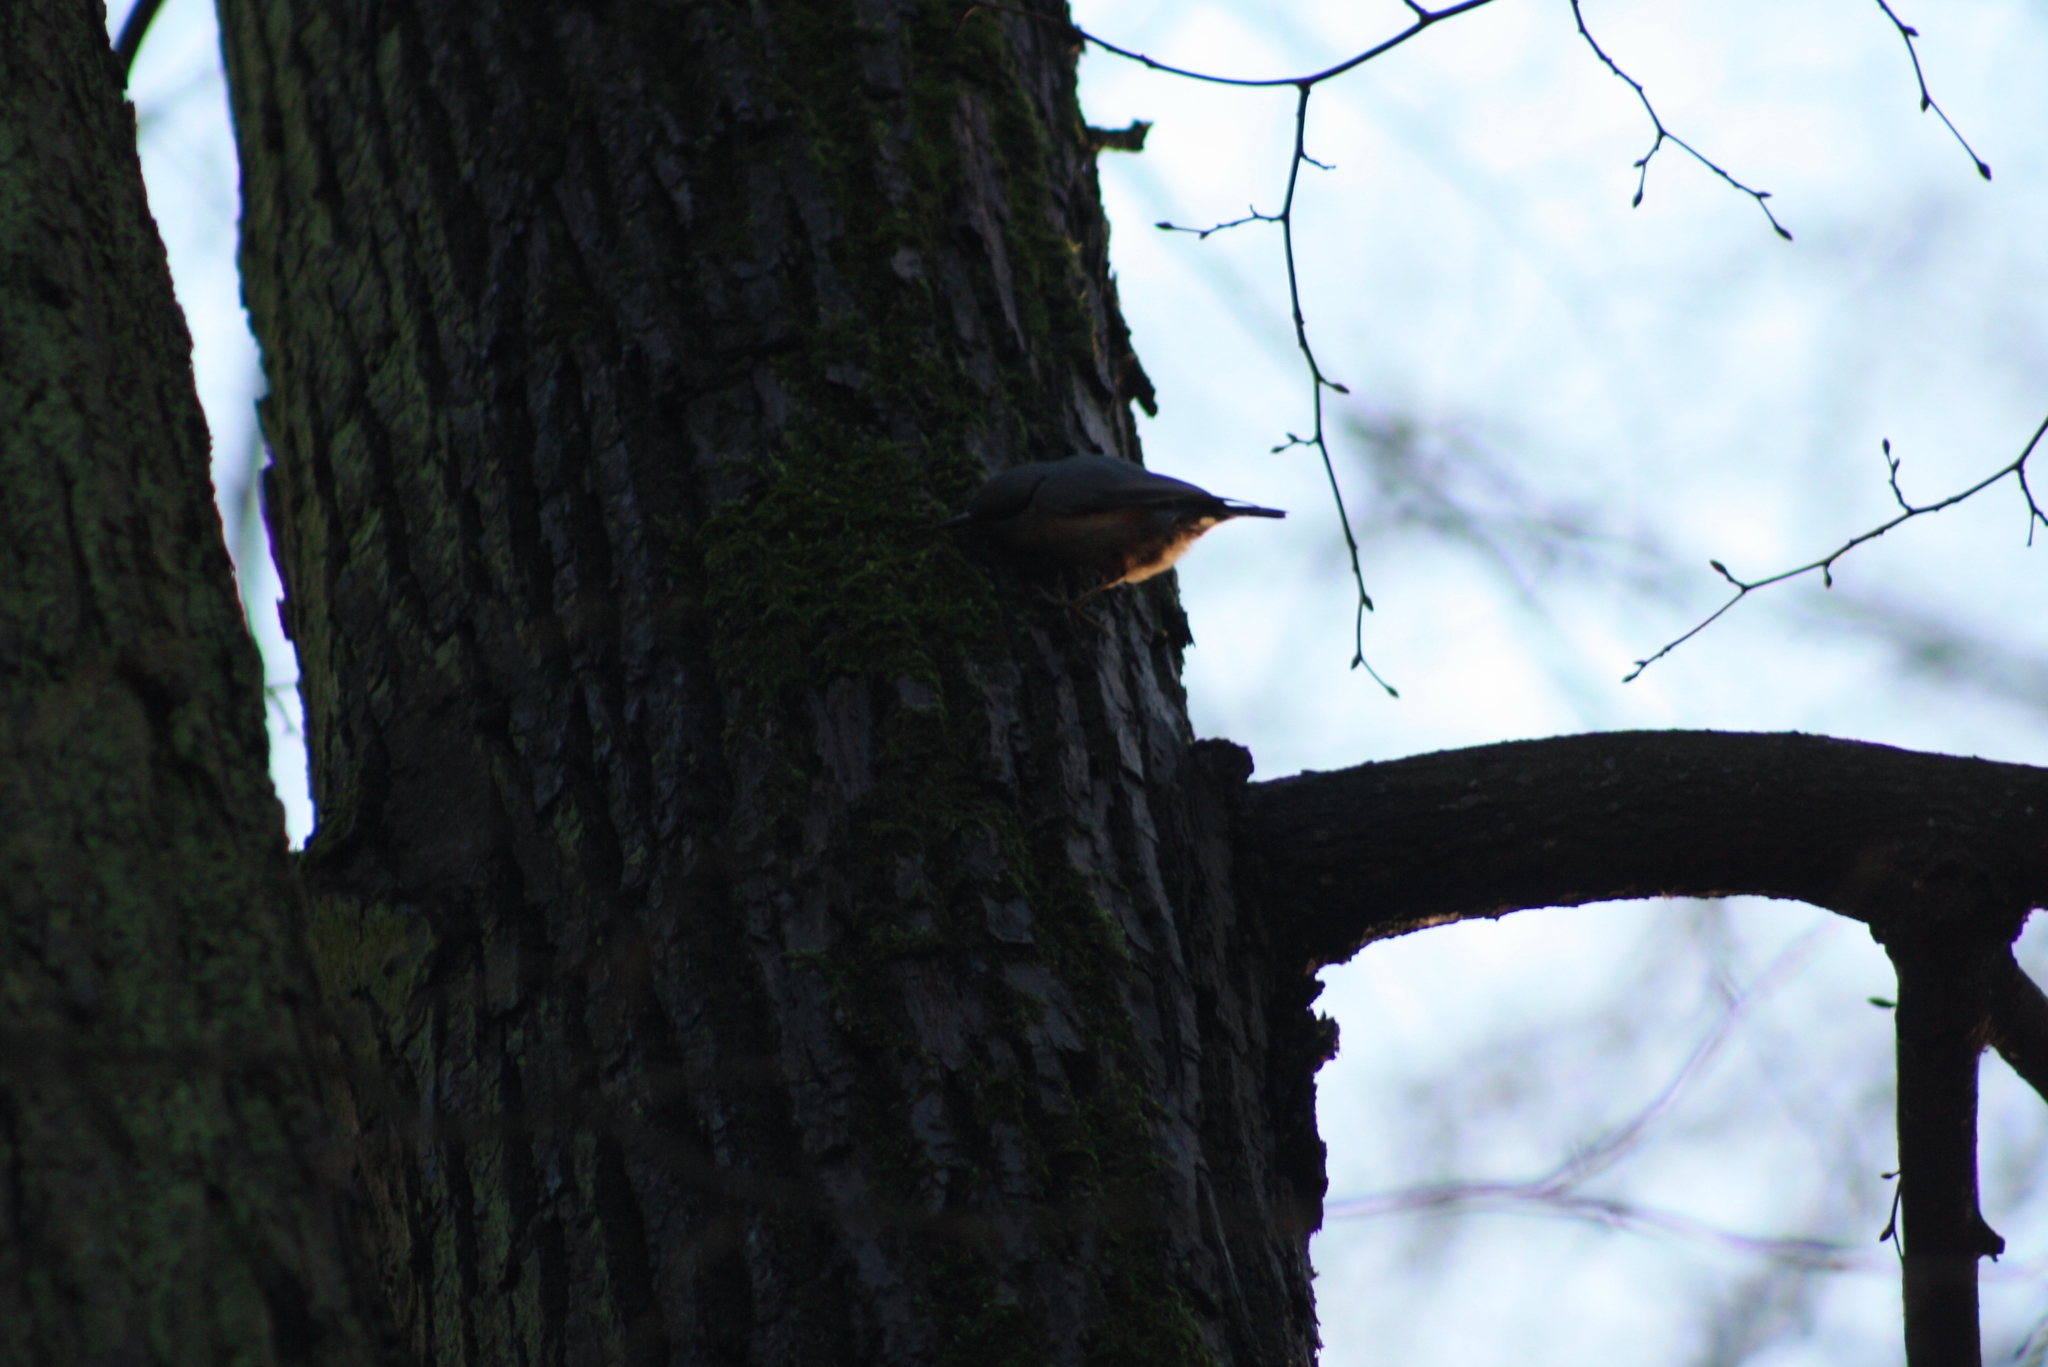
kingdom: Animalia
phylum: Chordata
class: Aves
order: Passeriformes
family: Sittidae
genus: Sitta
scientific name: Sitta europaea
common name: Eurasian nuthatch
